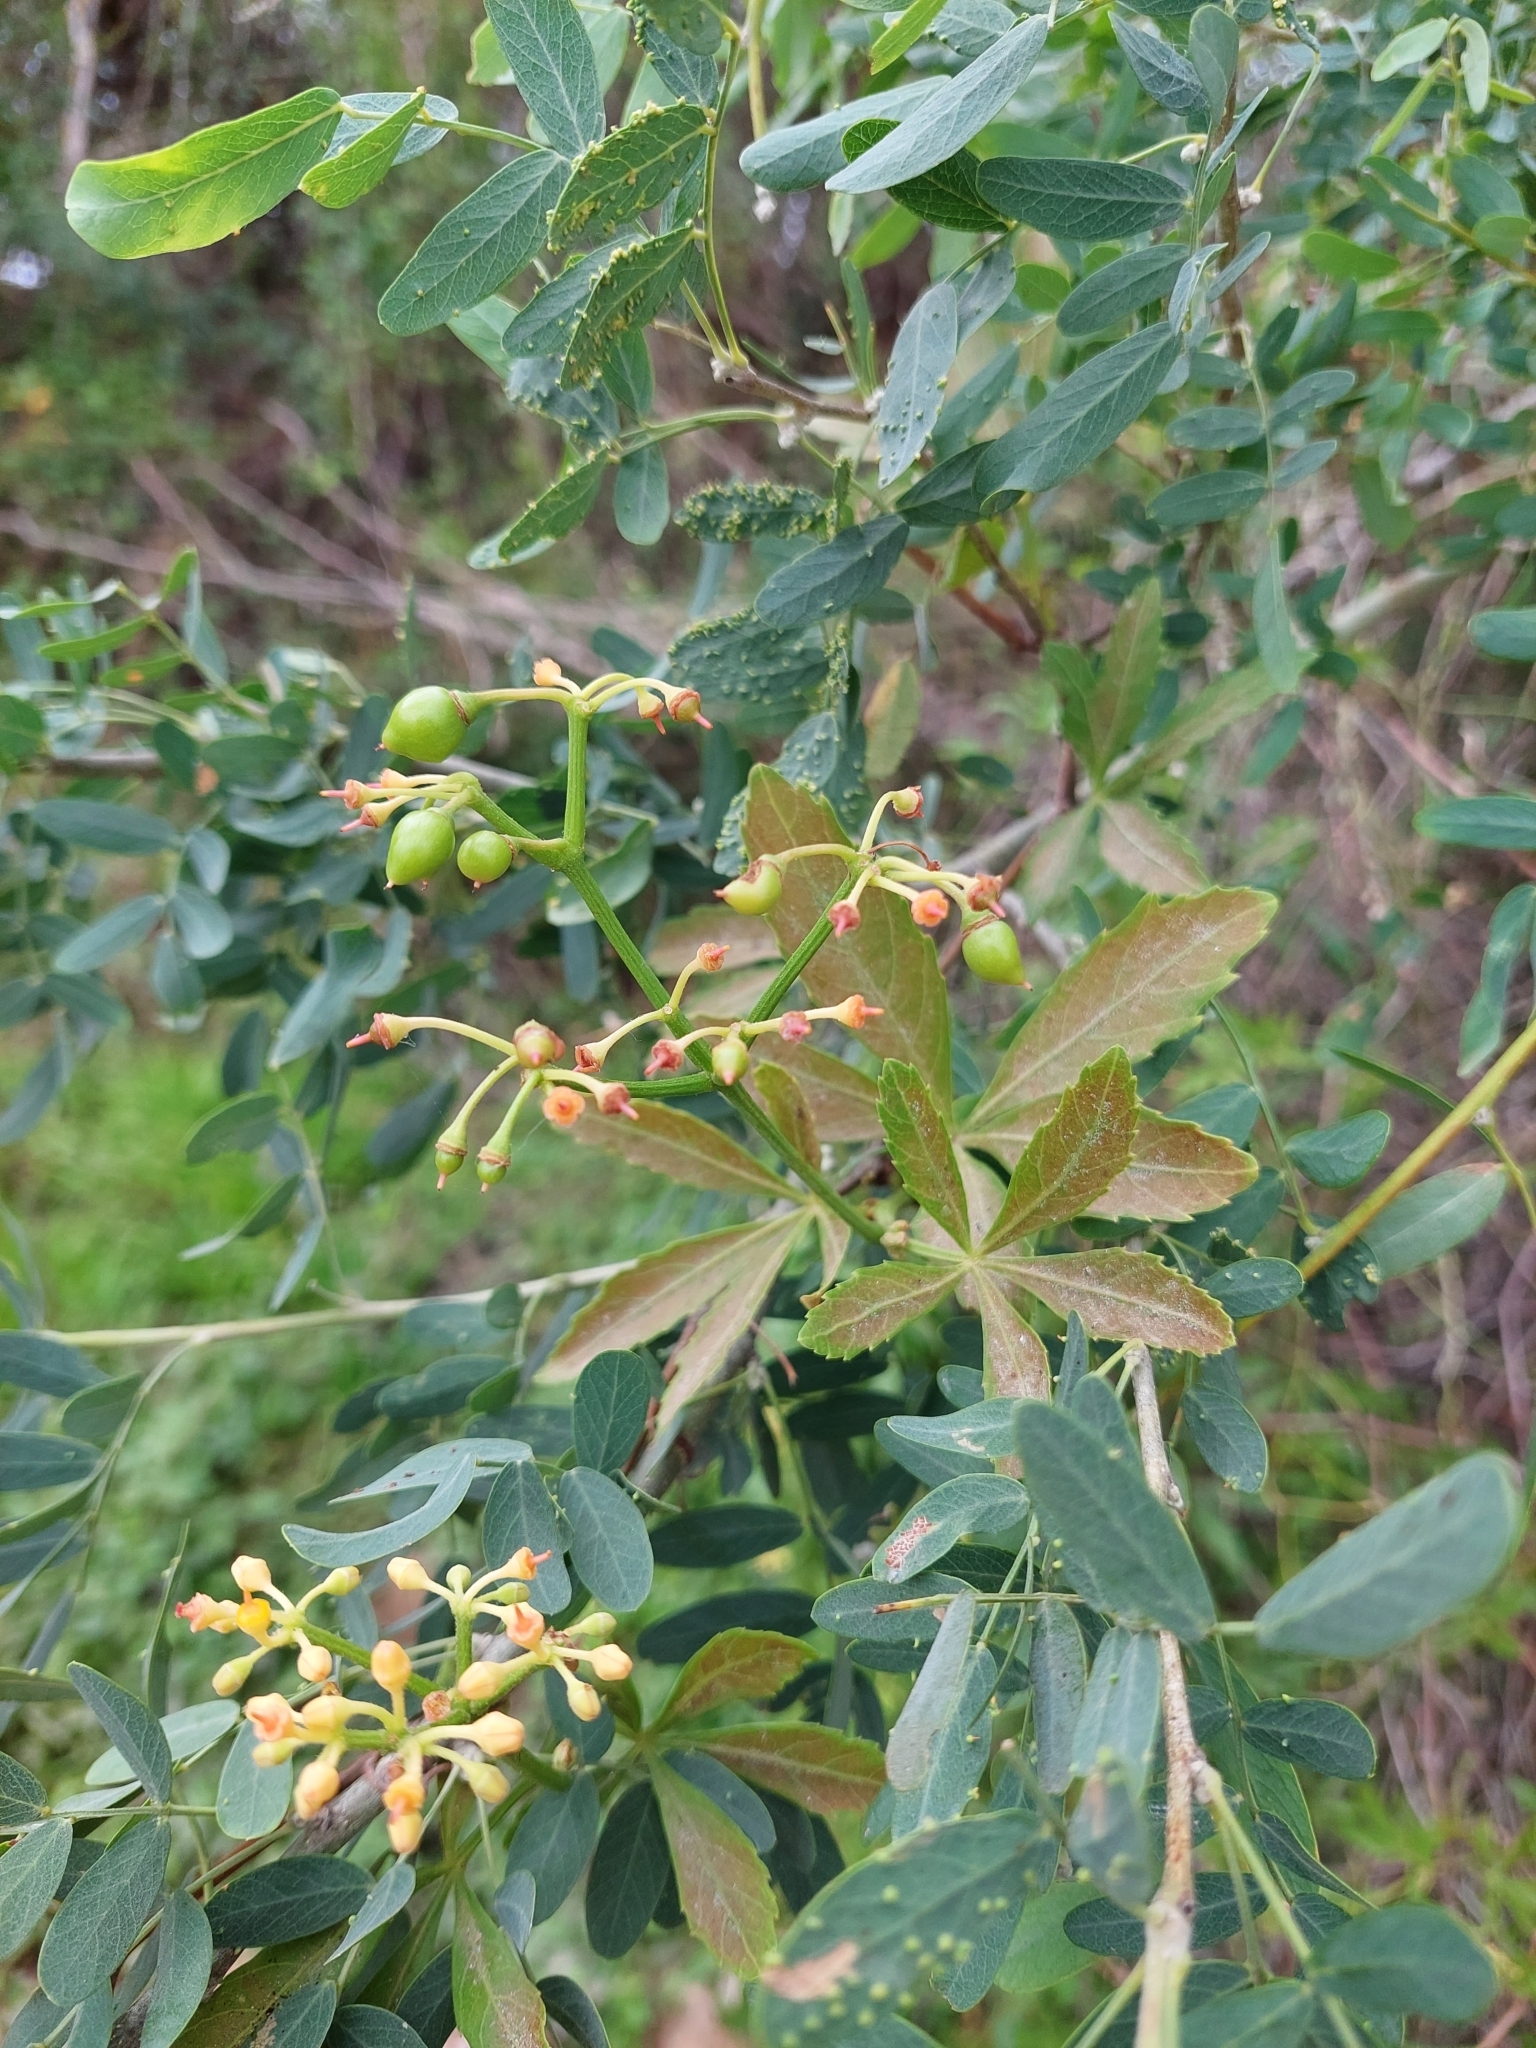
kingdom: Plantae
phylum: Tracheophyta
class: Magnoliopsida
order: Vitales
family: Vitaceae
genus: Cissus
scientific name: Cissus palmata
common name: Grape
